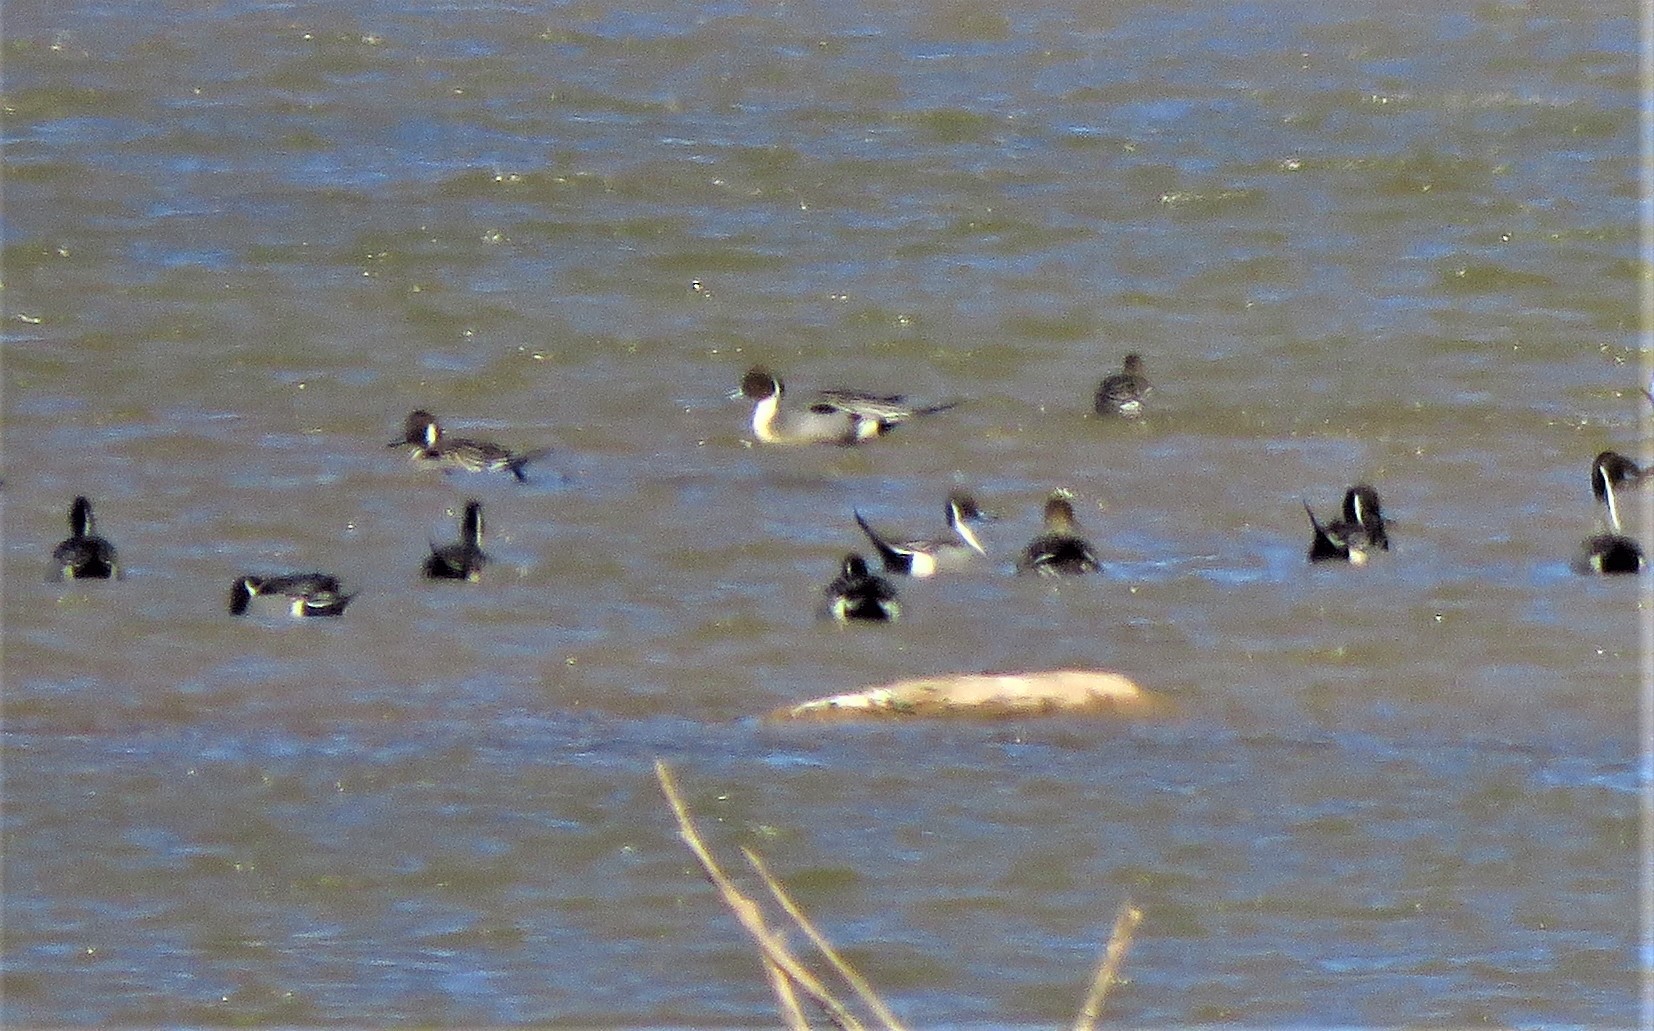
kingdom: Animalia
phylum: Chordata
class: Aves
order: Anseriformes
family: Anatidae
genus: Anas
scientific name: Anas acuta
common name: Northern pintail
